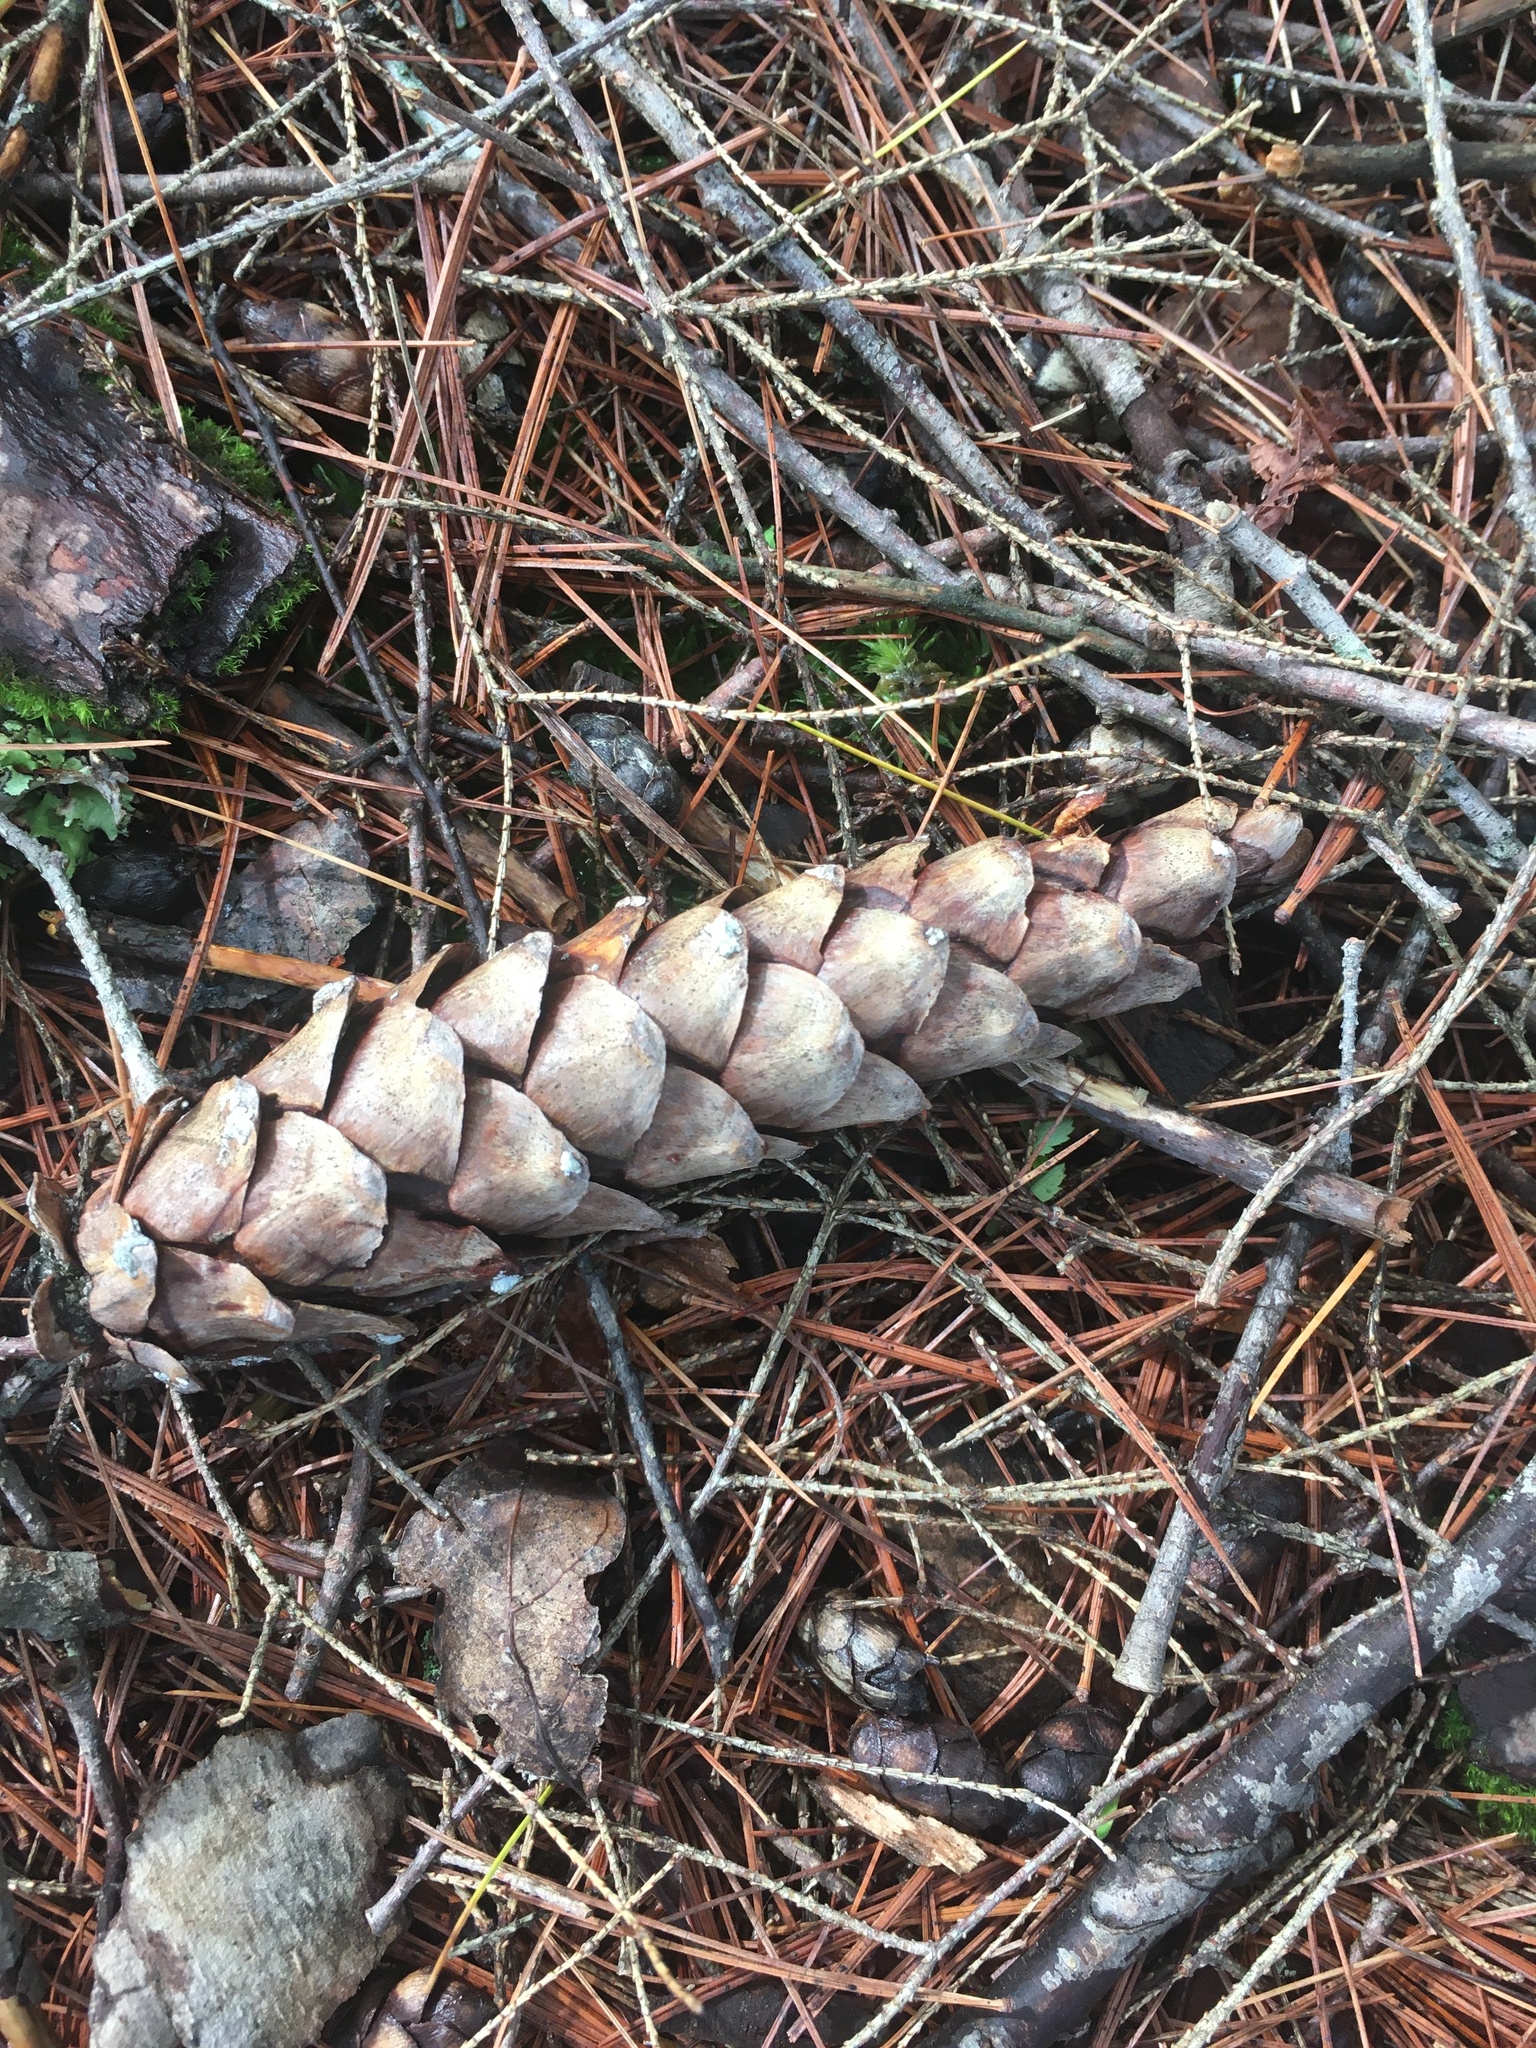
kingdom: Plantae
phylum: Tracheophyta
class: Pinopsida
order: Pinales
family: Pinaceae
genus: Pinus
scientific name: Pinus strobus
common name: Weymouth pine
